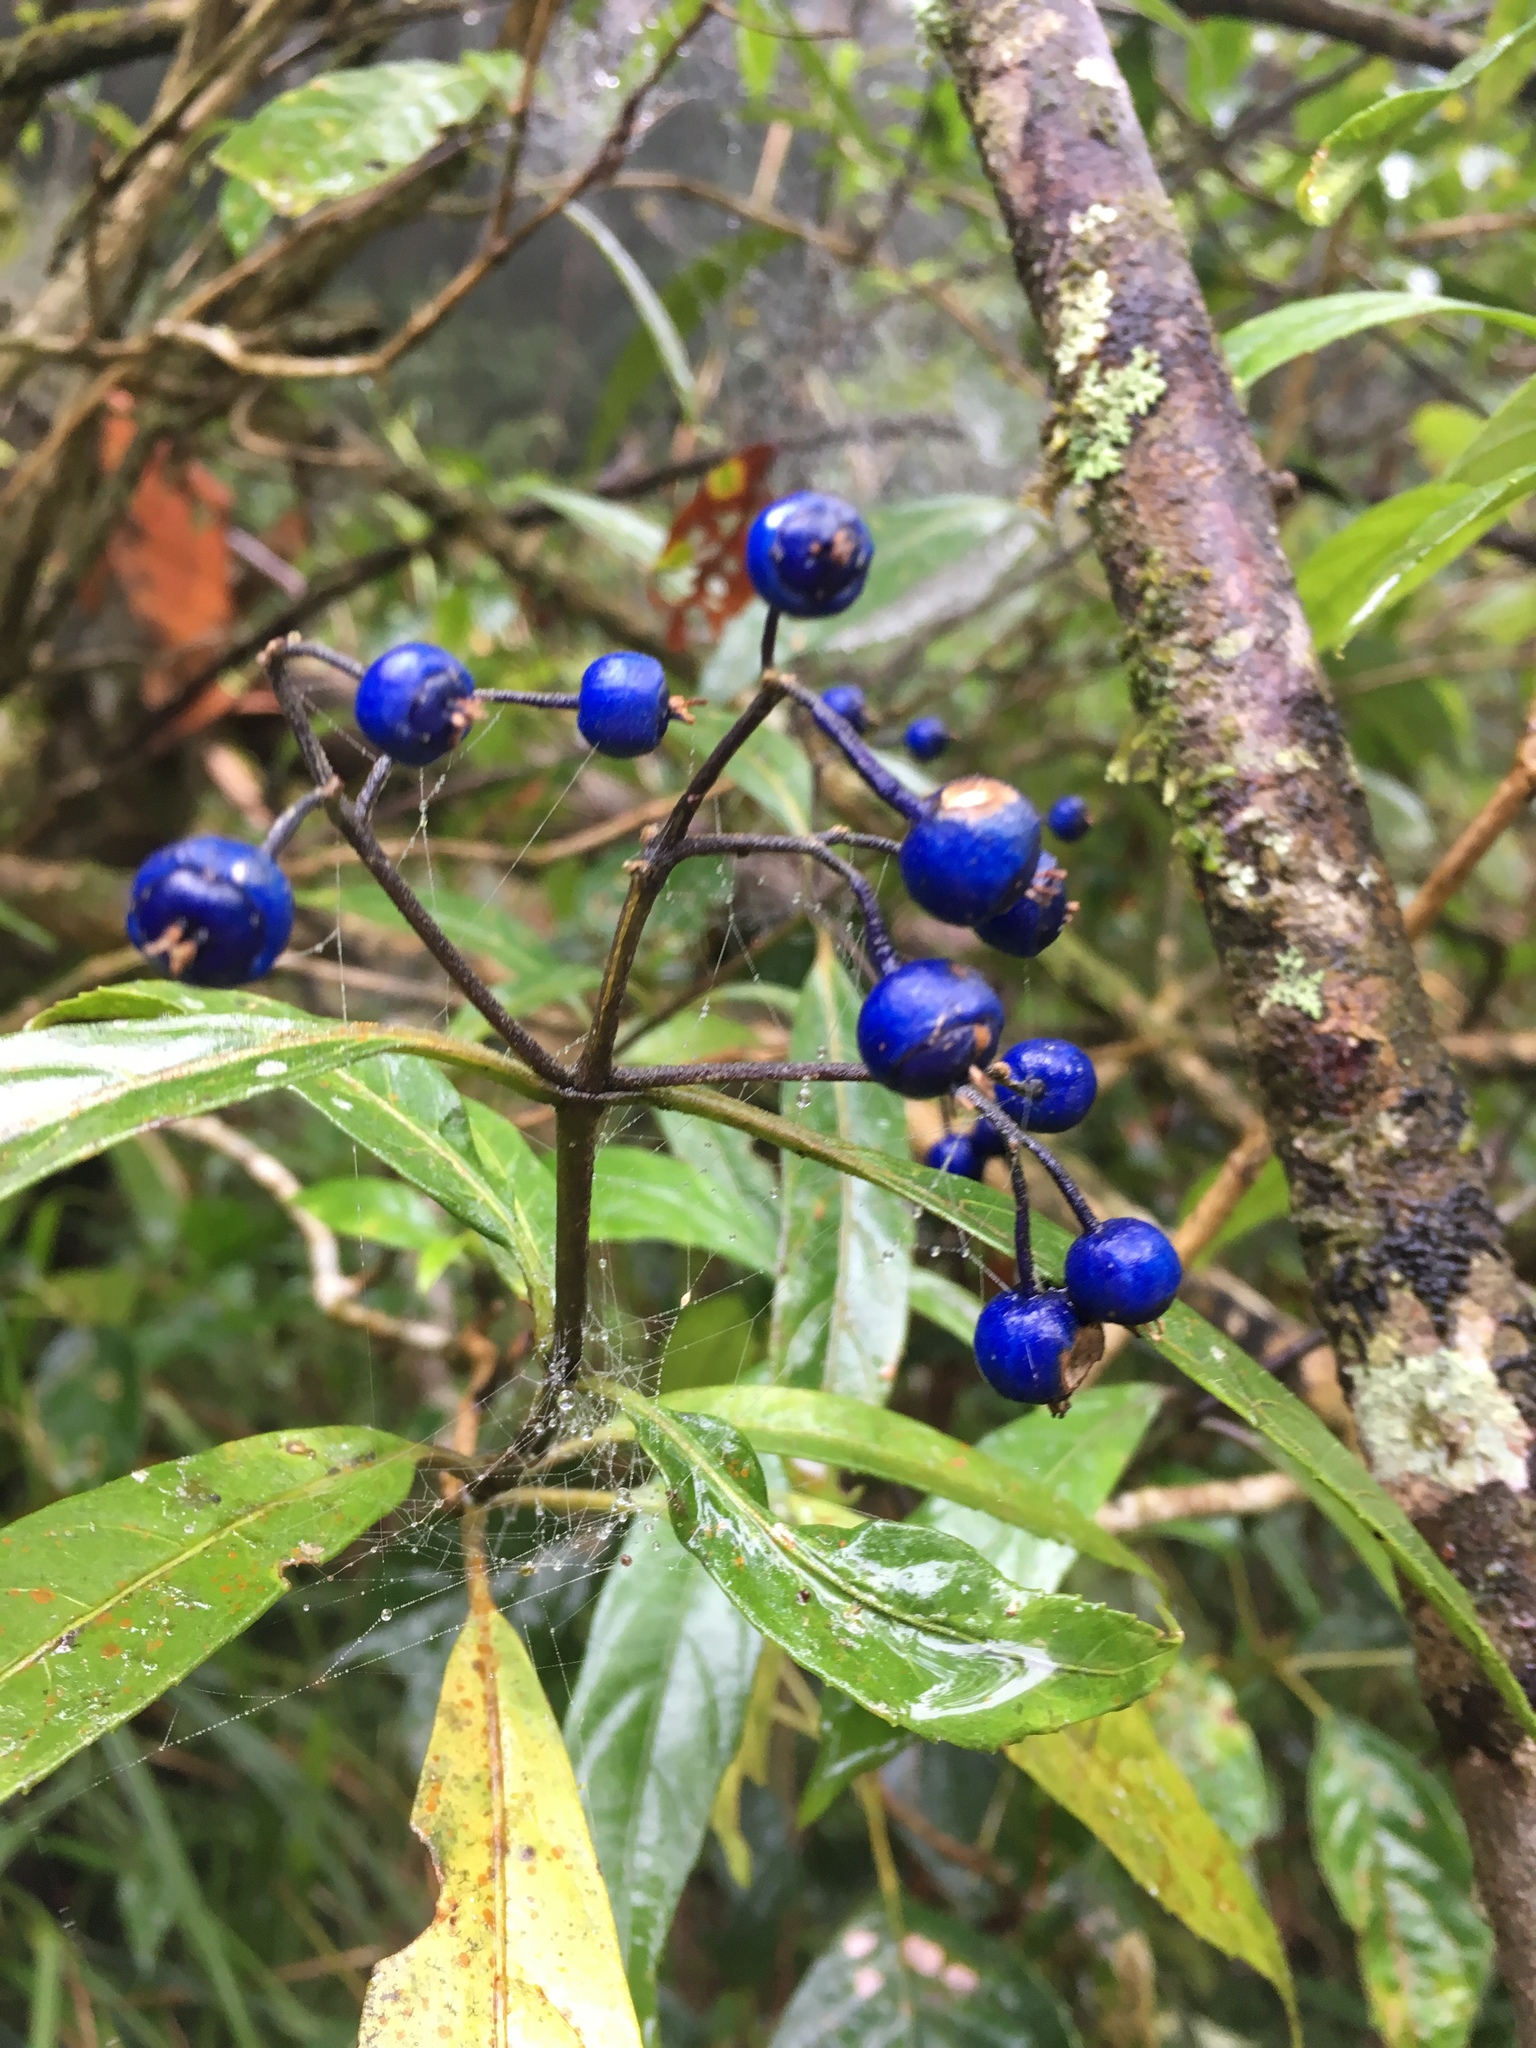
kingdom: Plantae
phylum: Tracheophyta
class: Magnoliopsida
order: Cornales
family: Hydrangeaceae
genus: Hydrangea
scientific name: Hydrangea febrifuga
